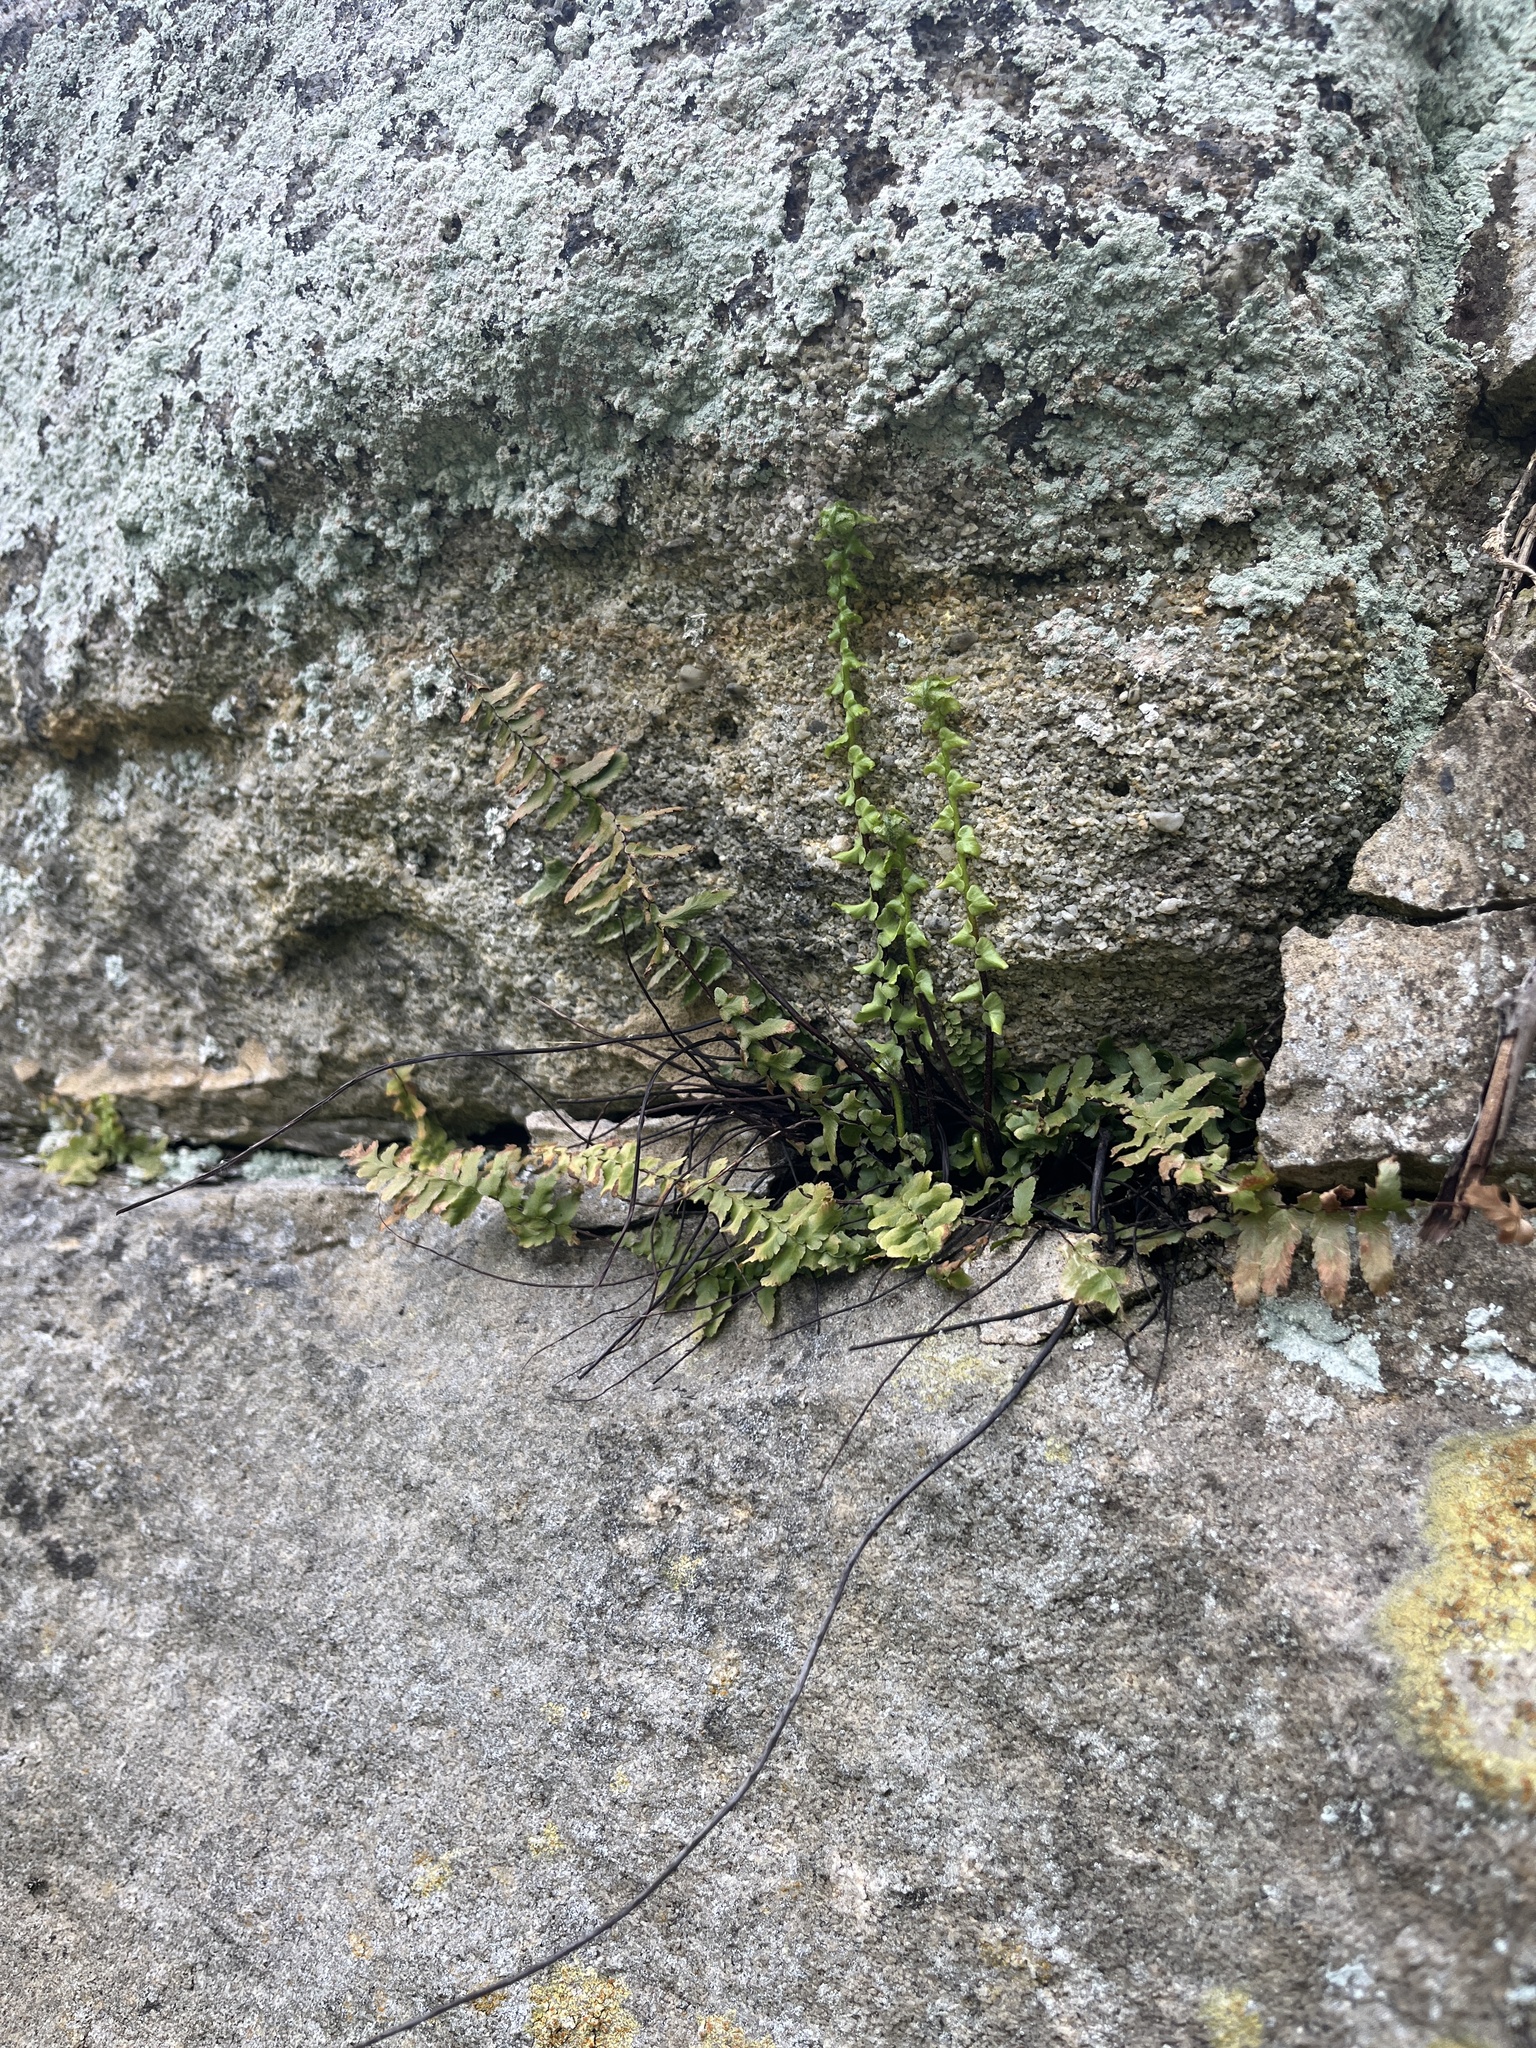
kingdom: Plantae
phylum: Tracheophyta
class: Polypodiopsida
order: Polypodiales
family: Aspleniaceae
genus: Asplenium
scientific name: Asplenium platyneuron
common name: Ebony spleenwort
